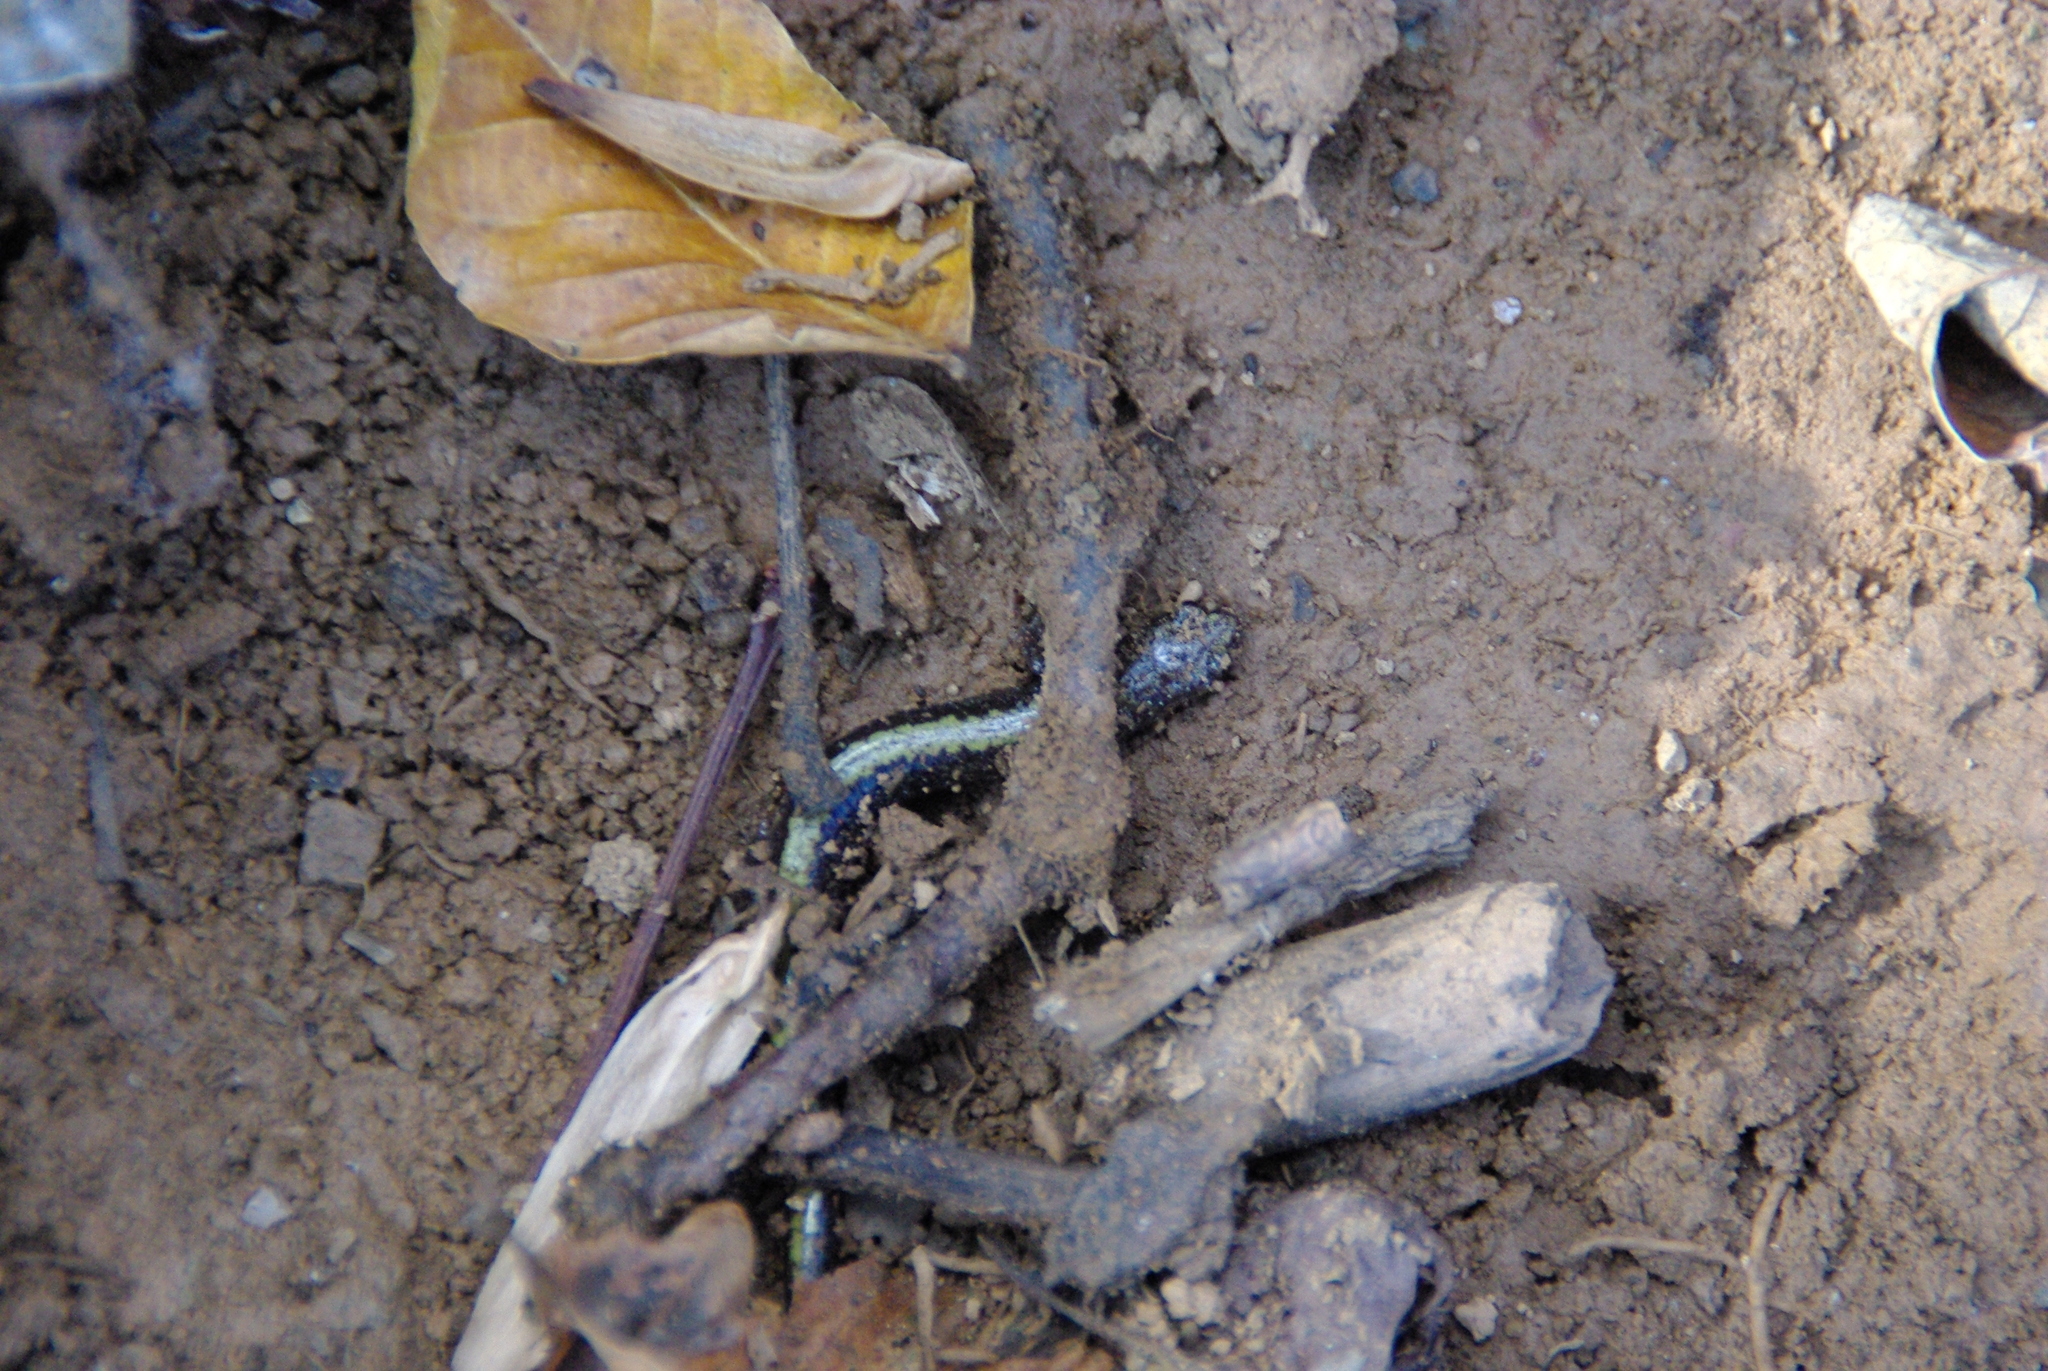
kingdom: Animalia
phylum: Chordata
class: Amphibia
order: Caudata
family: Plethodontidae
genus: Plethodon
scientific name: Plethodon cinereus
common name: Redback salamander
